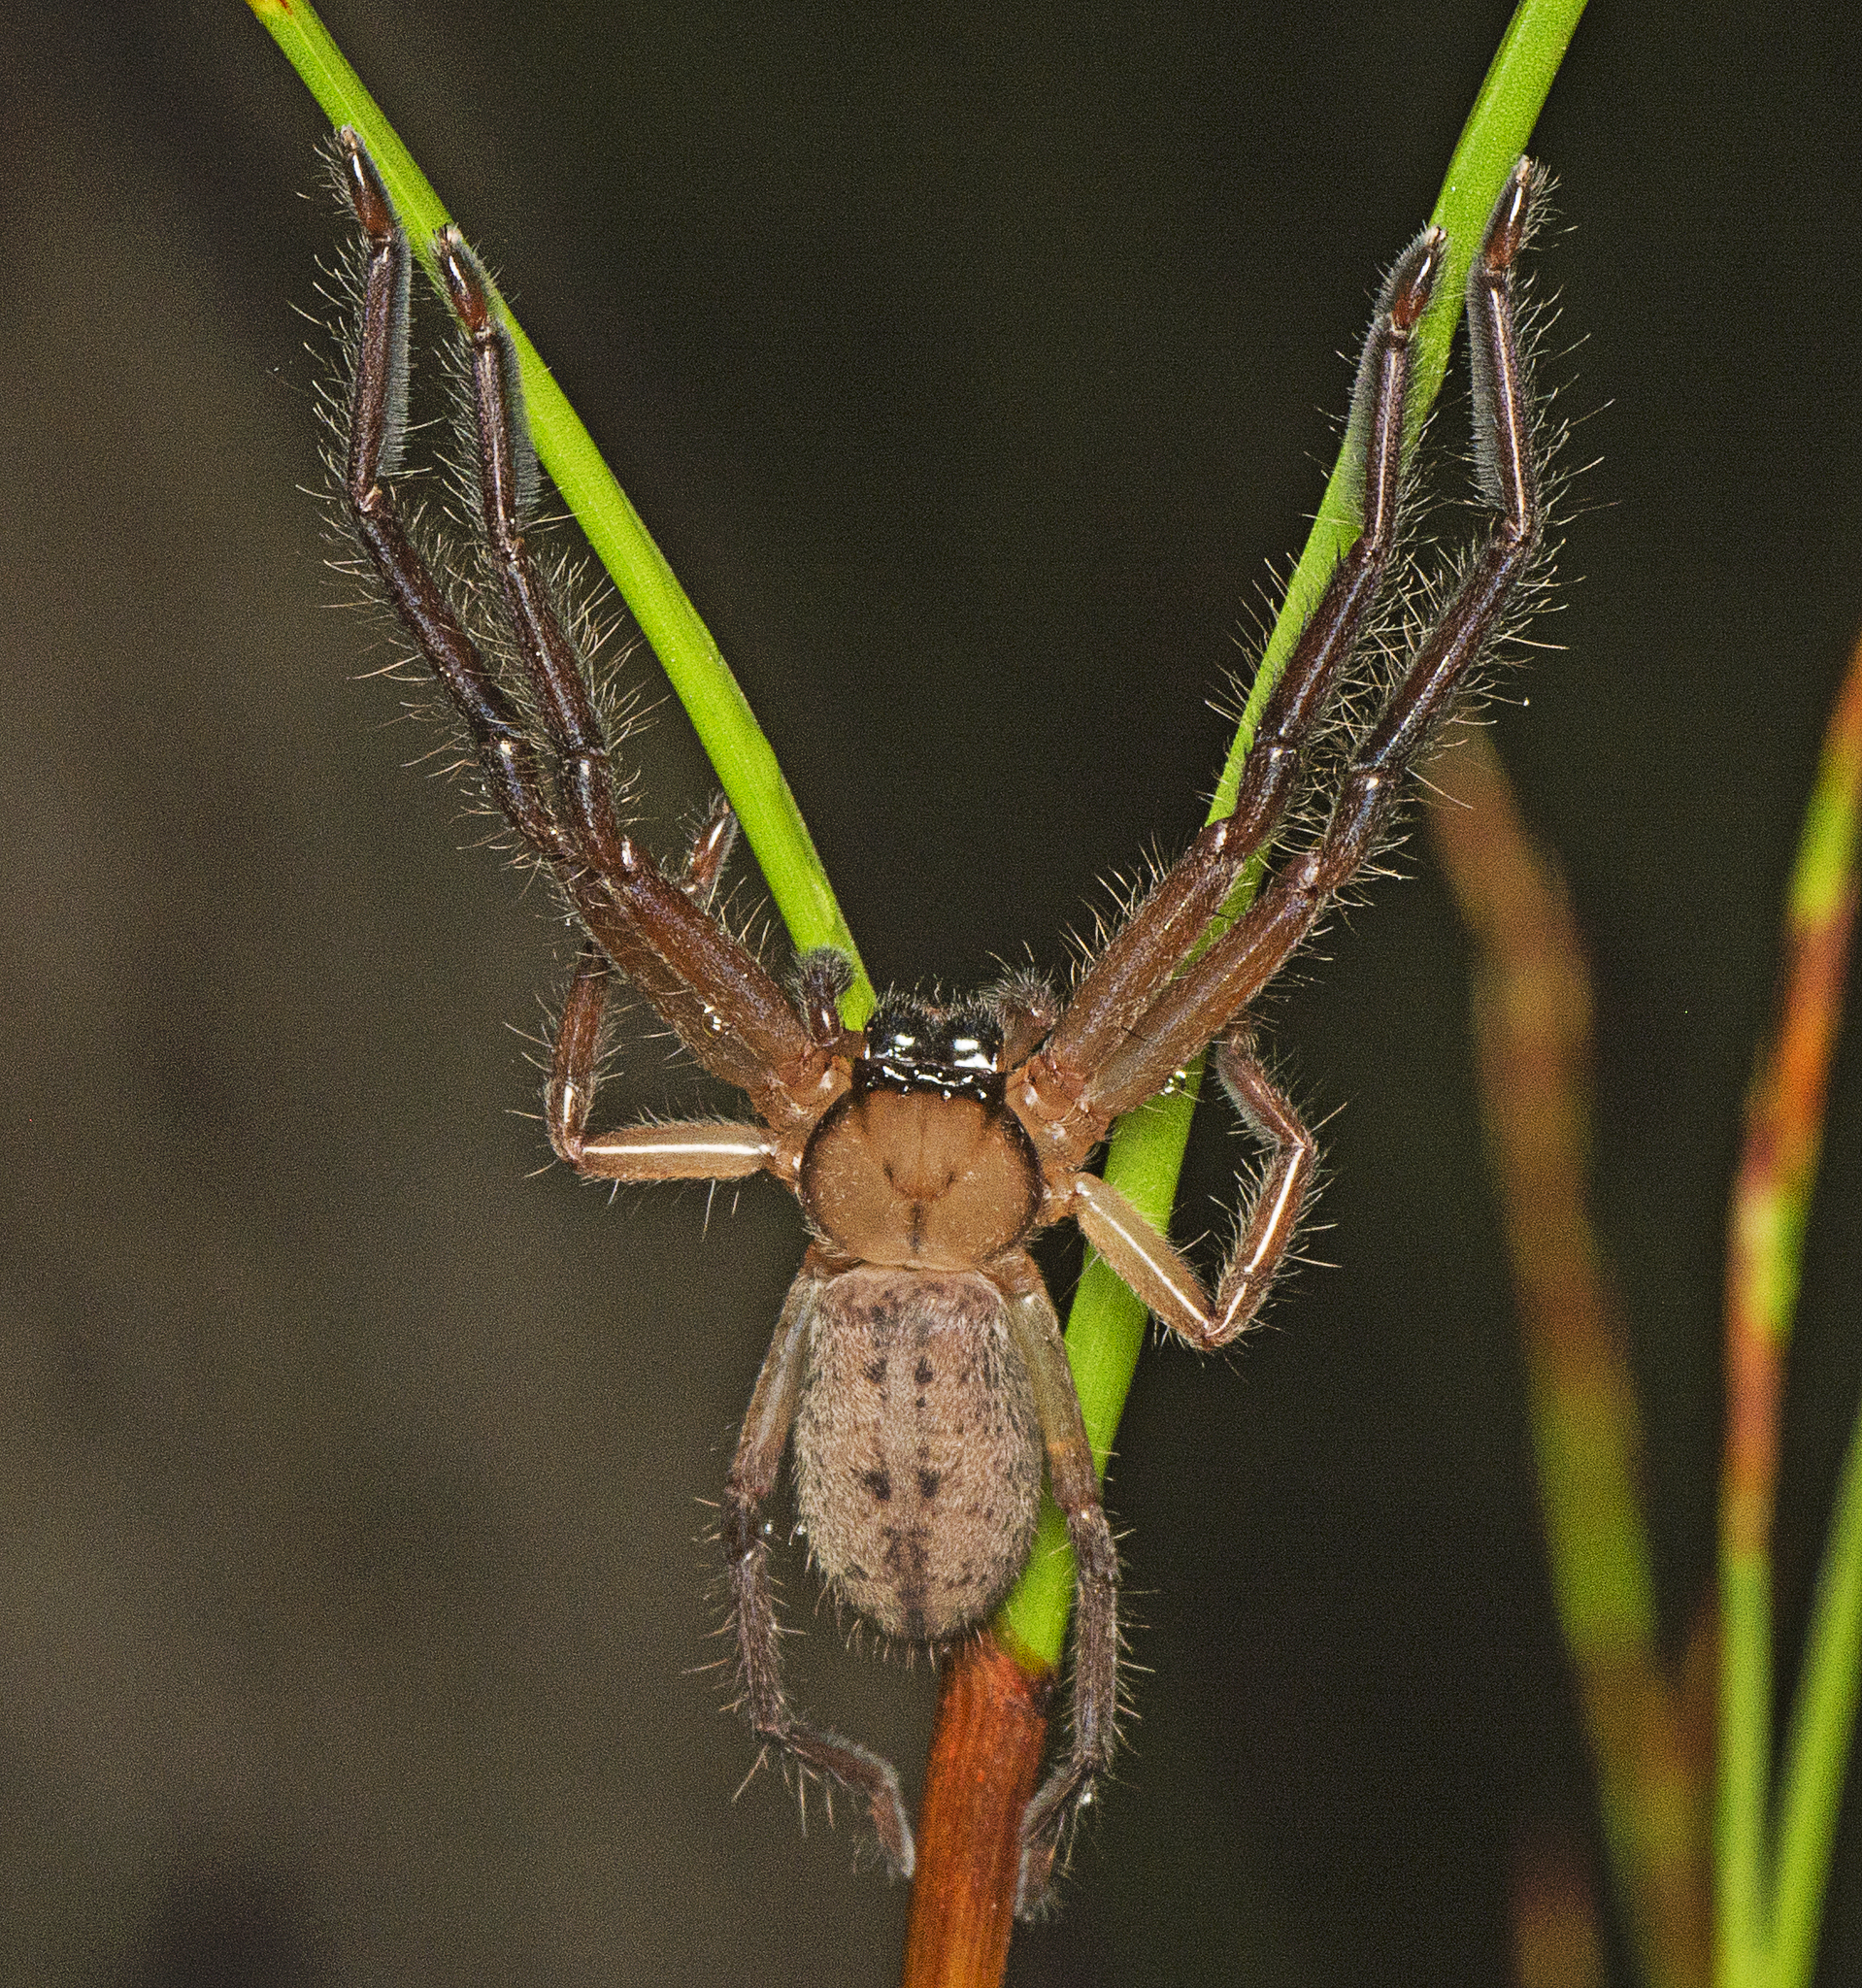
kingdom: Animalia
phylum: Arthropoda
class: Arachnida
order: Araneae
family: Sparassidae
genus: Delena
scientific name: Delena cancerides
